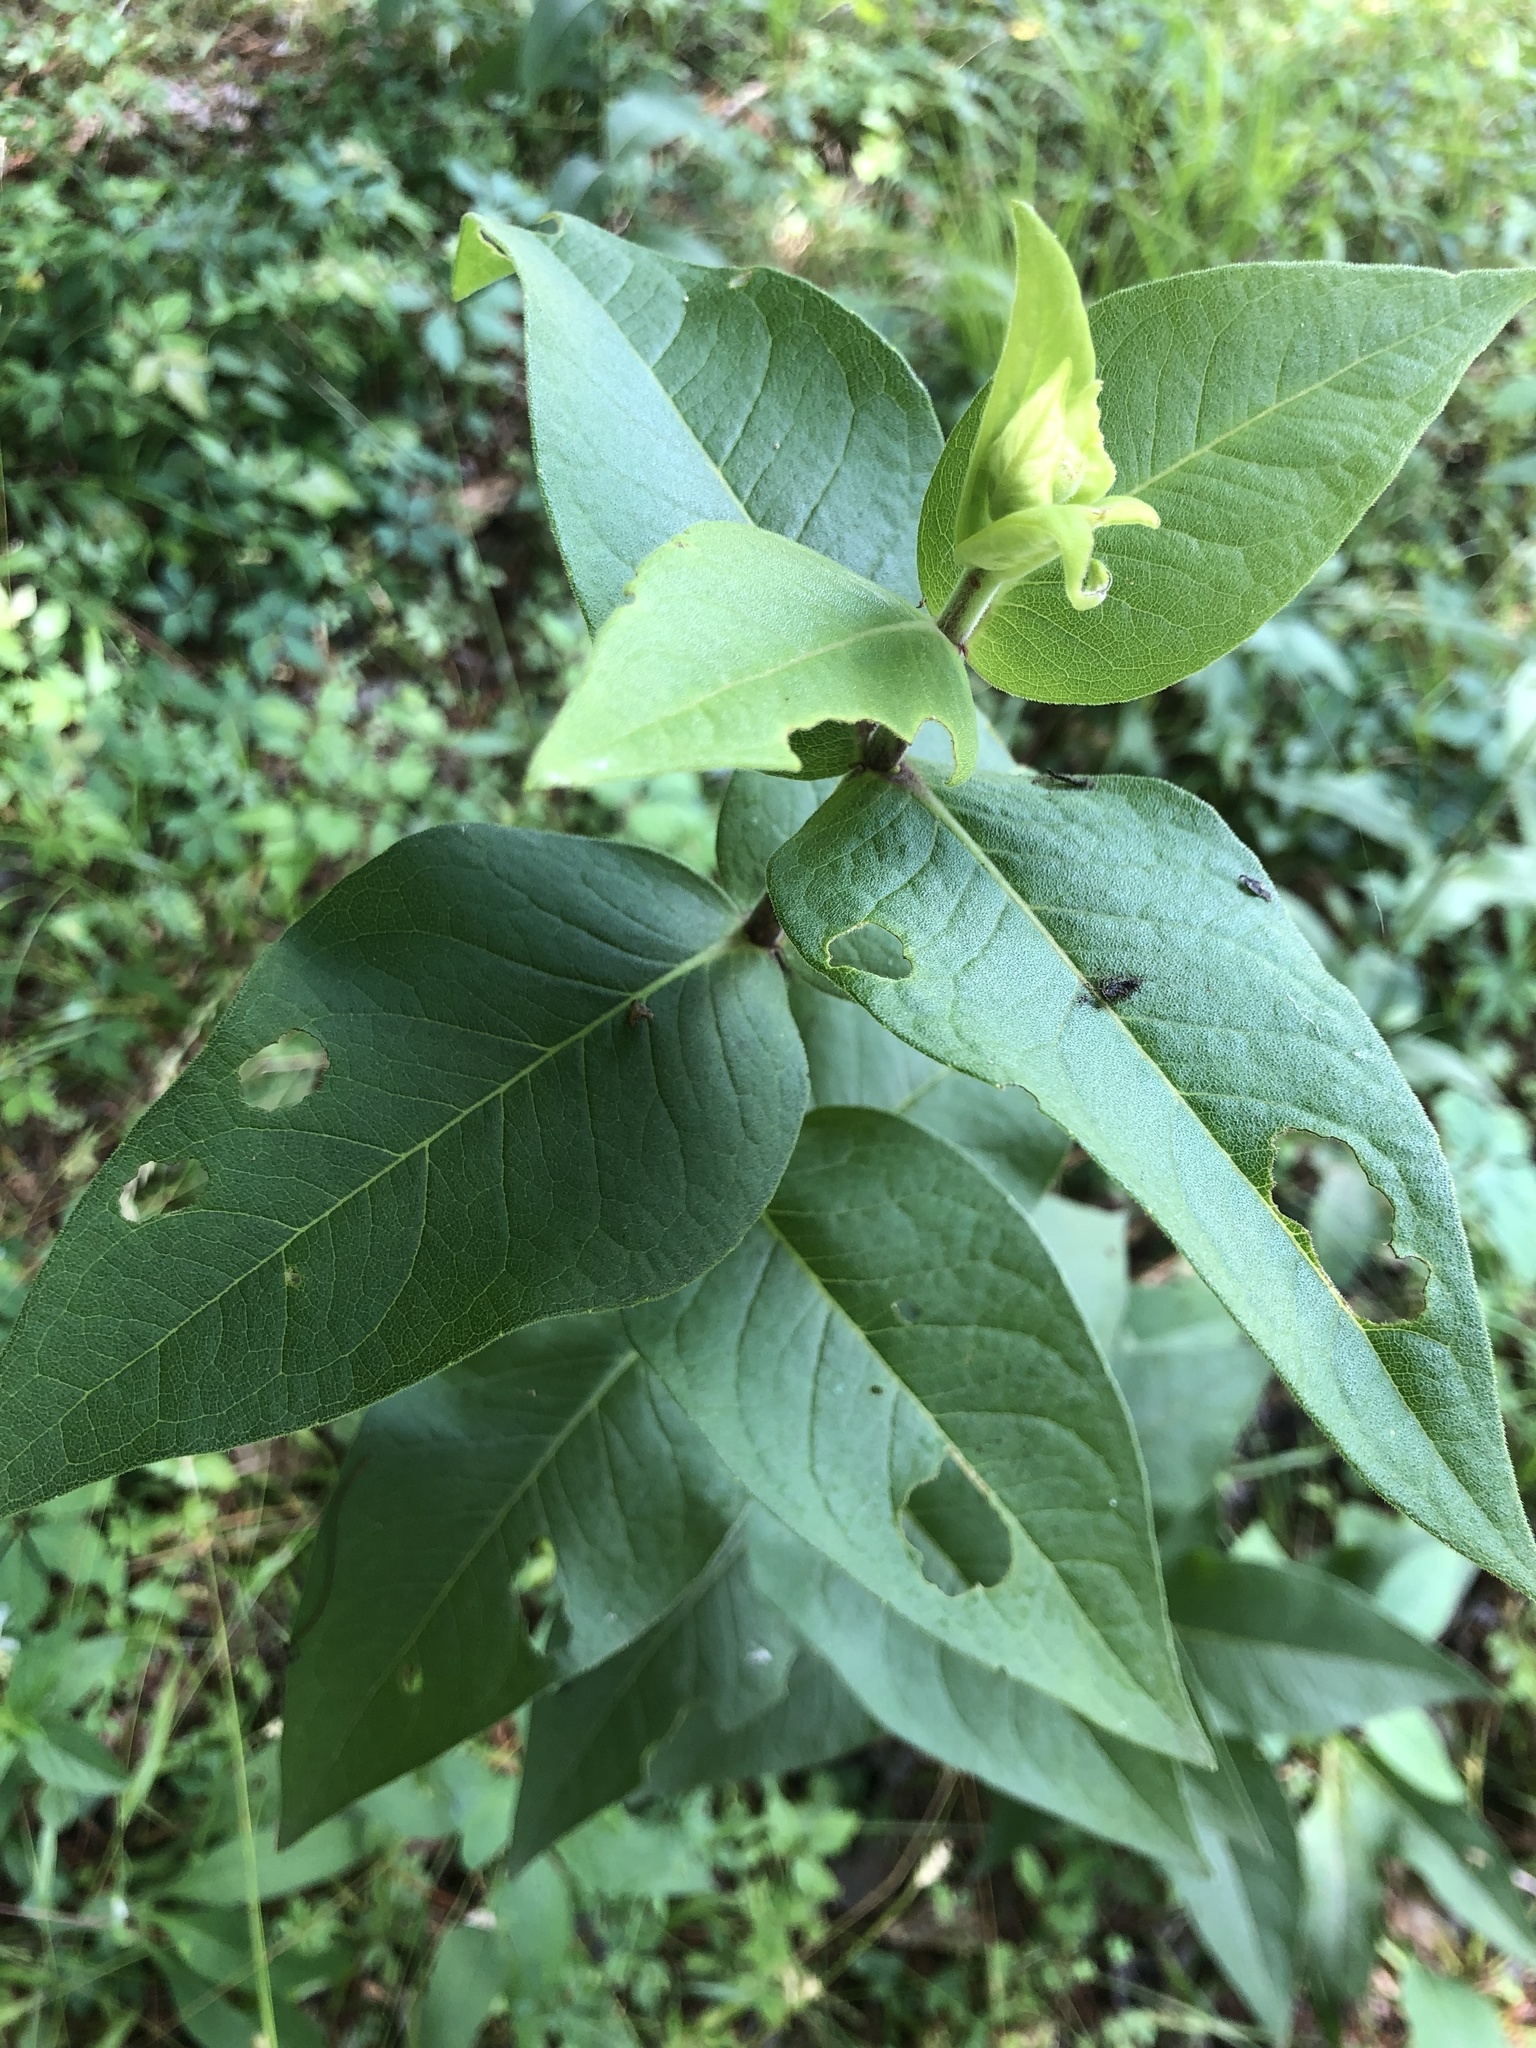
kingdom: Plantae
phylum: Tracheophyta
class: Magnoliopsida
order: Asterales
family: Asteraceae
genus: Silphium
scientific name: Silphium integrifolium
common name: Whole-leaf rosinweed
